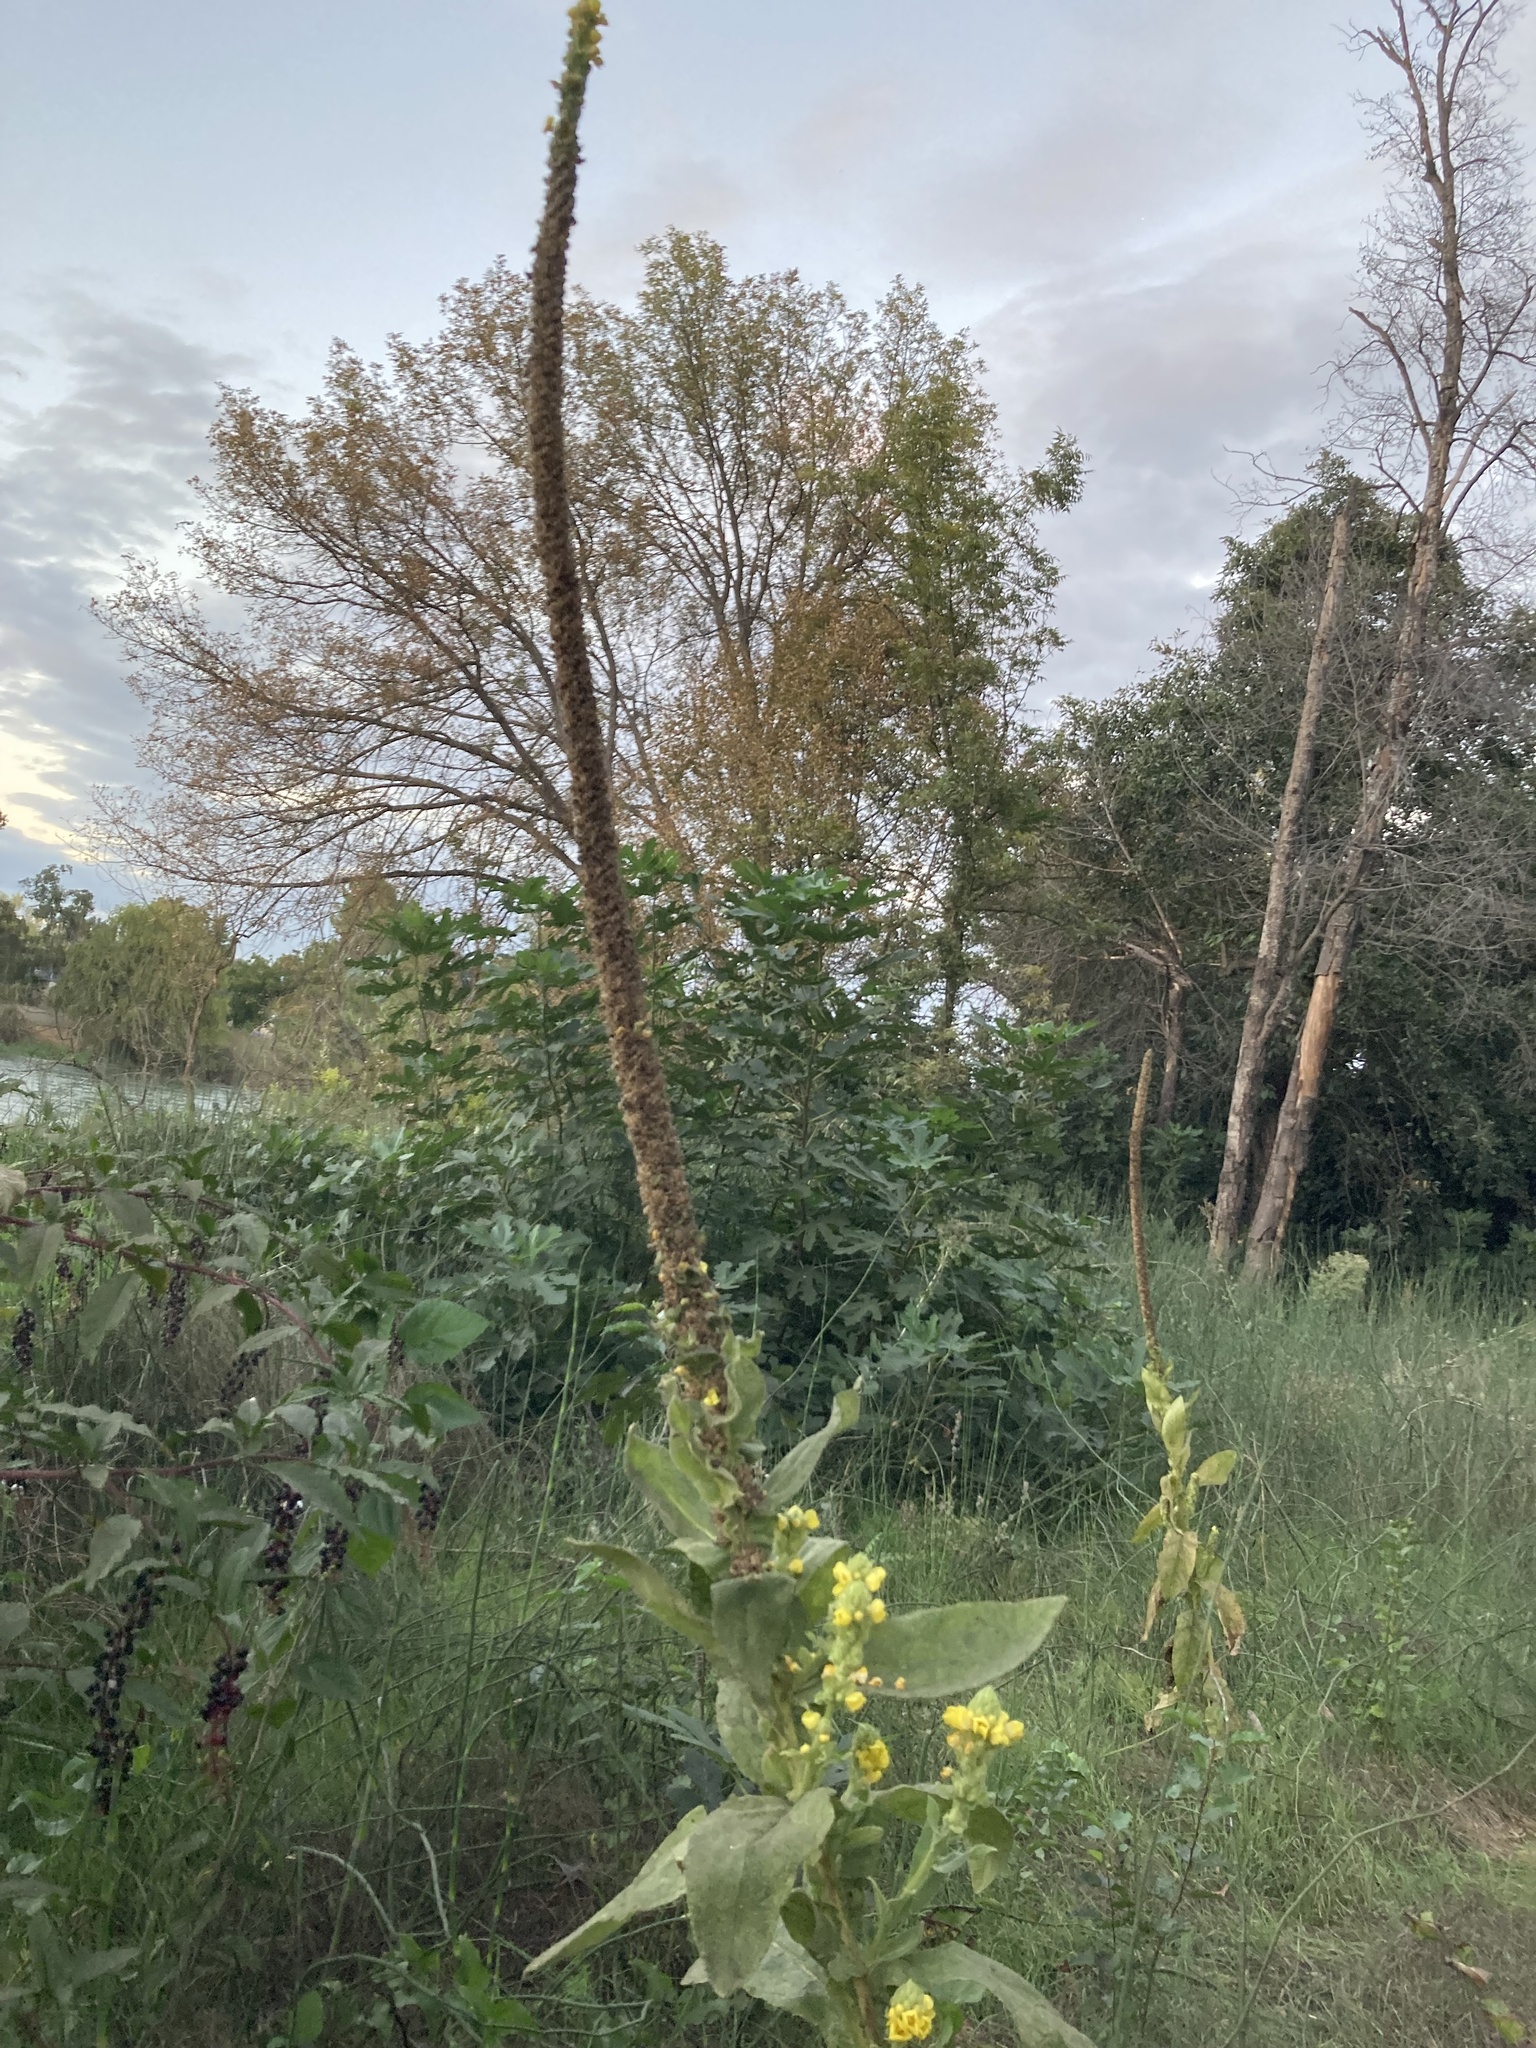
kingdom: Plantae
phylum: Tracheophyta
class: Magnoliopsida
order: Lamiales
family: Scrophulariaceae
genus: Verbascum
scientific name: Verbascum thapsus
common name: Common mullein
